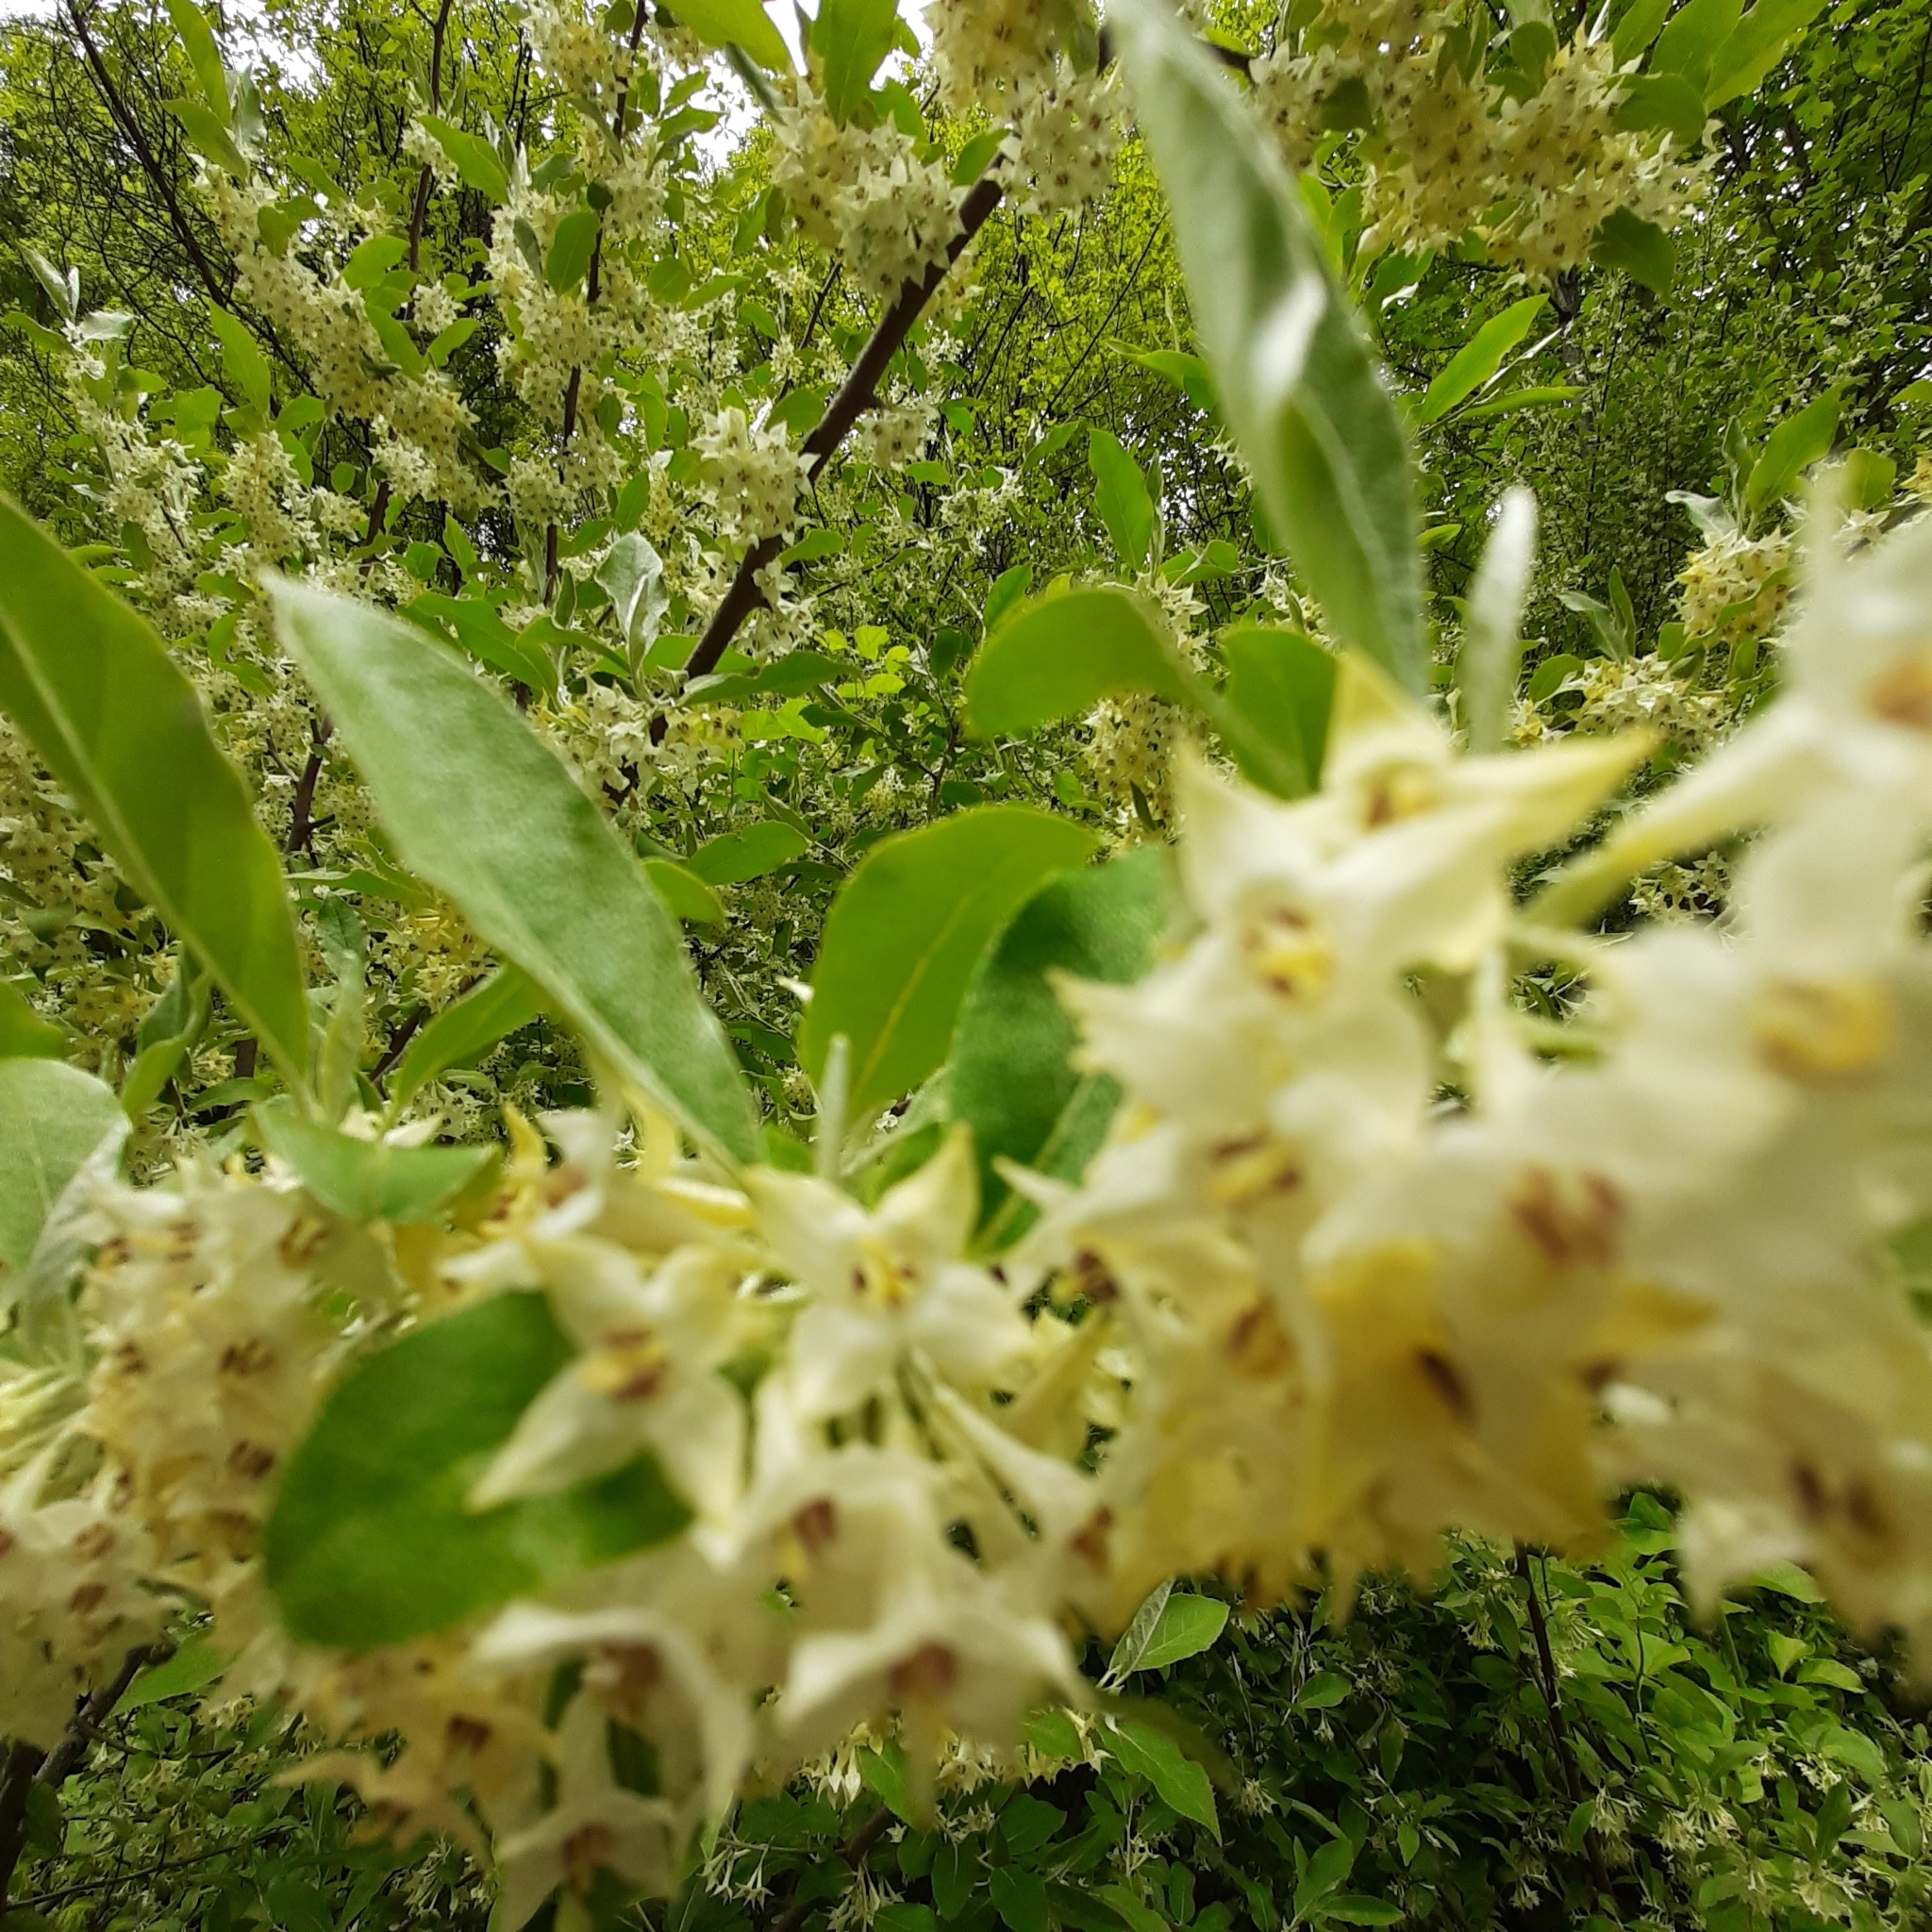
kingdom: Plantae
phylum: Tracheophyta
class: Magnoliopsida
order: Rosales
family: Elaeagnaceae
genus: Elaeagnus
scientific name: Elaeagnus umbellata
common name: Autumn olive
